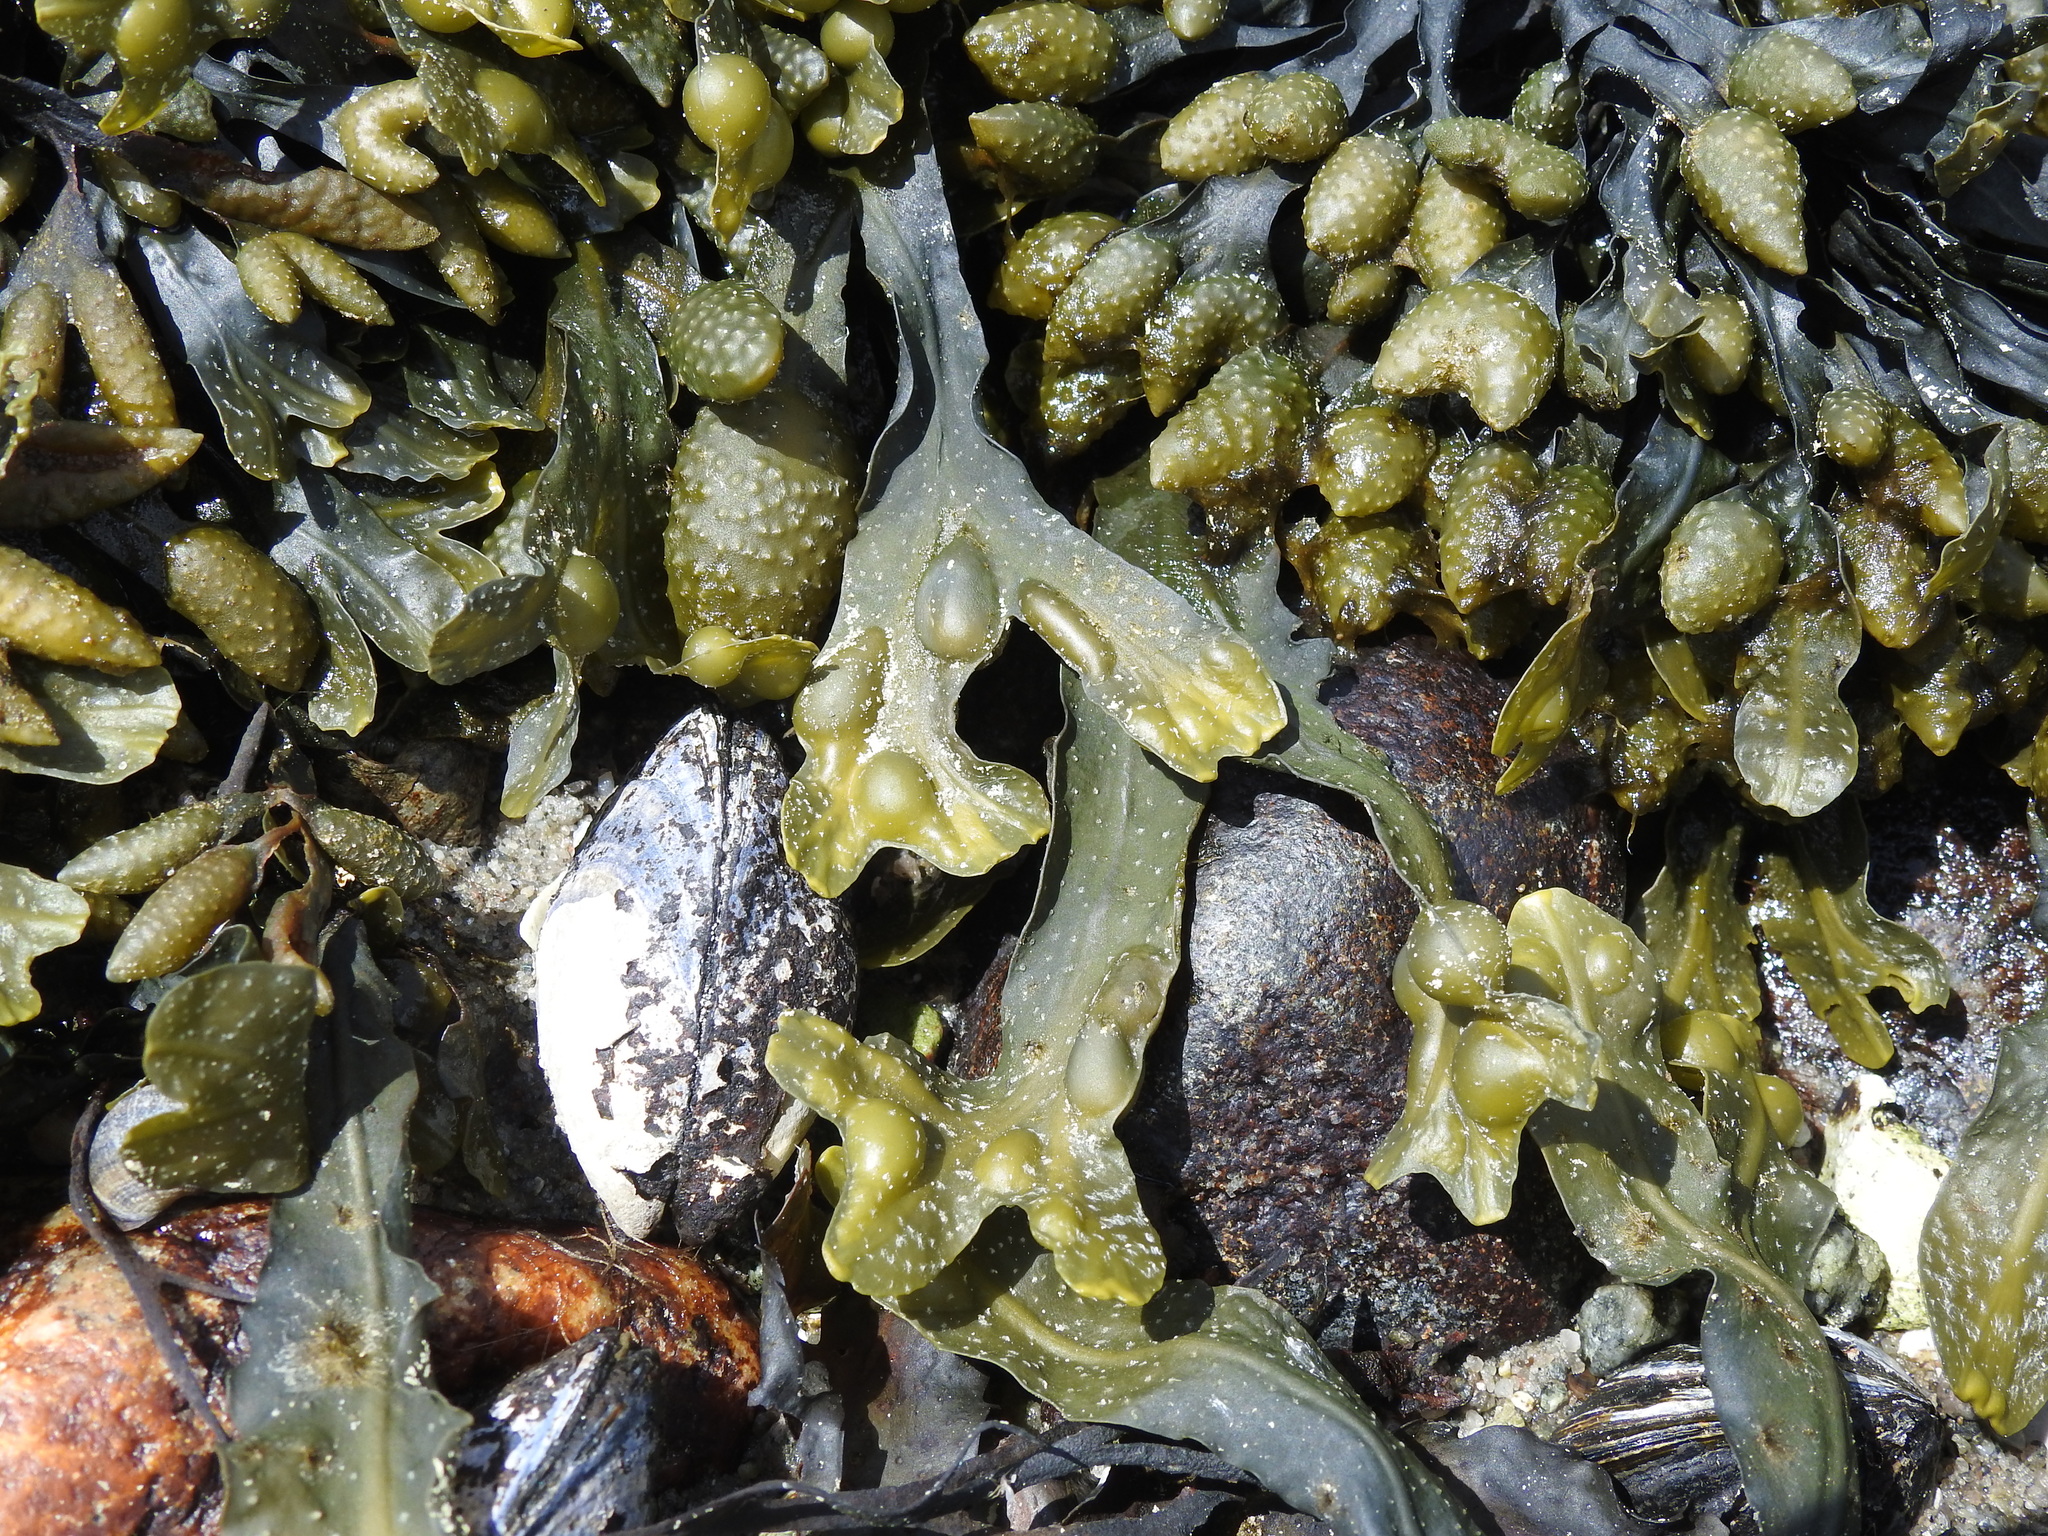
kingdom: Chromista
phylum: Ochrophyta
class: Phaeophyceae
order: Fucales
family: Fucaceae
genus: Fucus
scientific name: Fucus vesiculosus
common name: Bladder wrack
